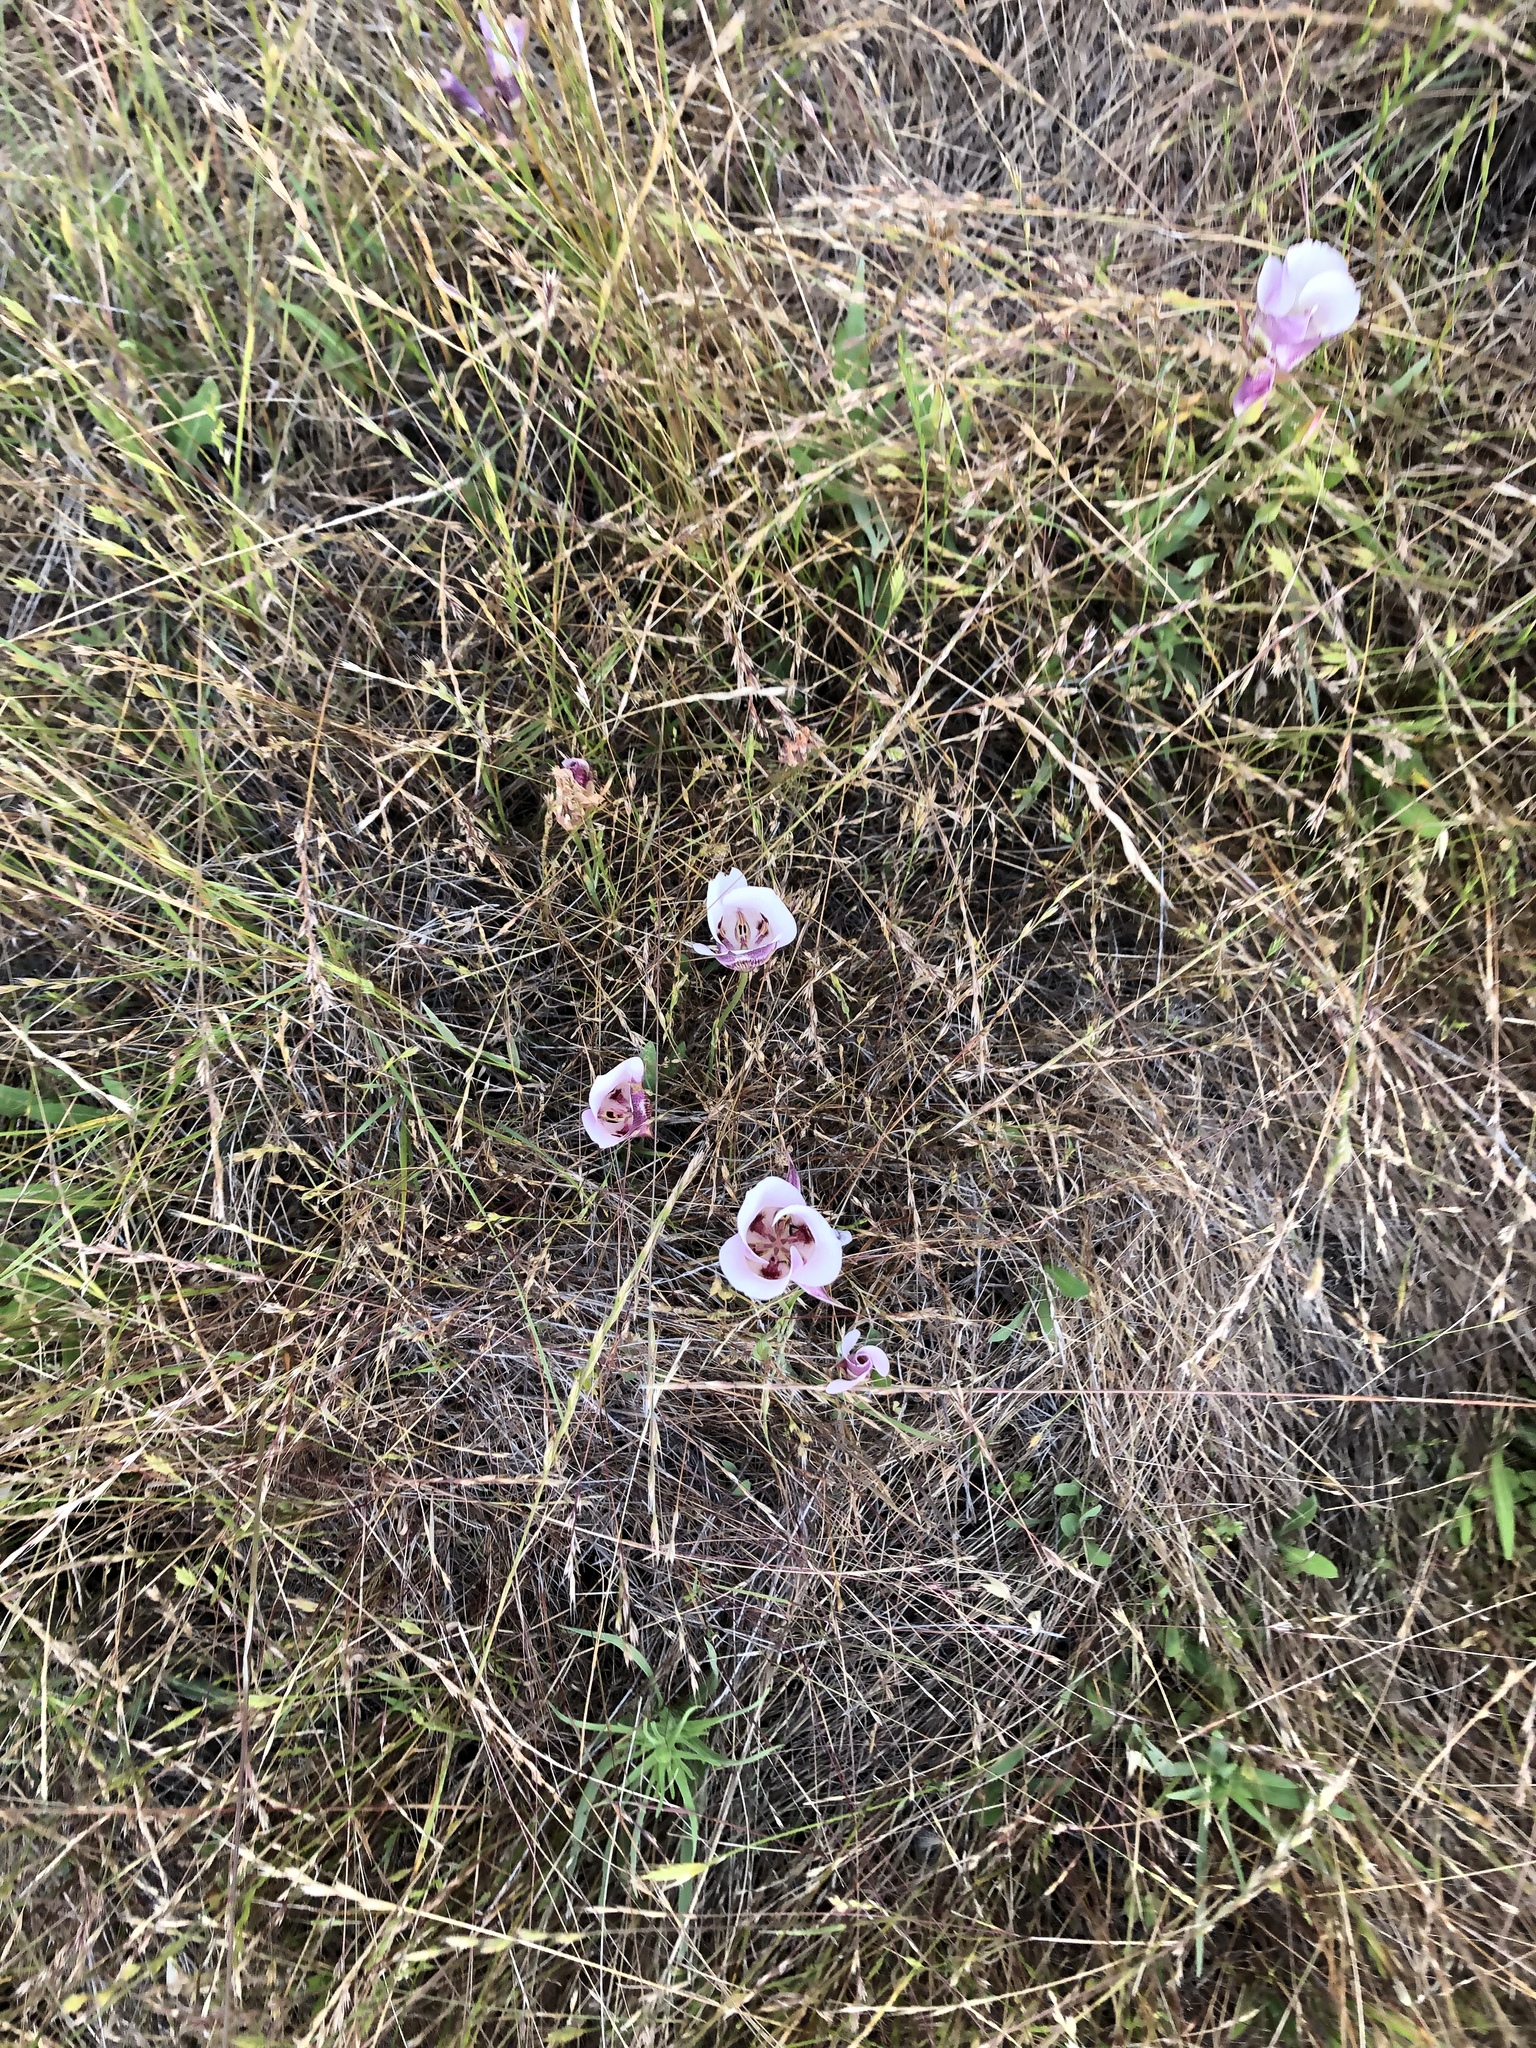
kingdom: Plantae
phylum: Tracheophyta
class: Liliopsida
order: Liliales
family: Liliaceae
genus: Calochortus
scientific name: Calochortus argillosus
